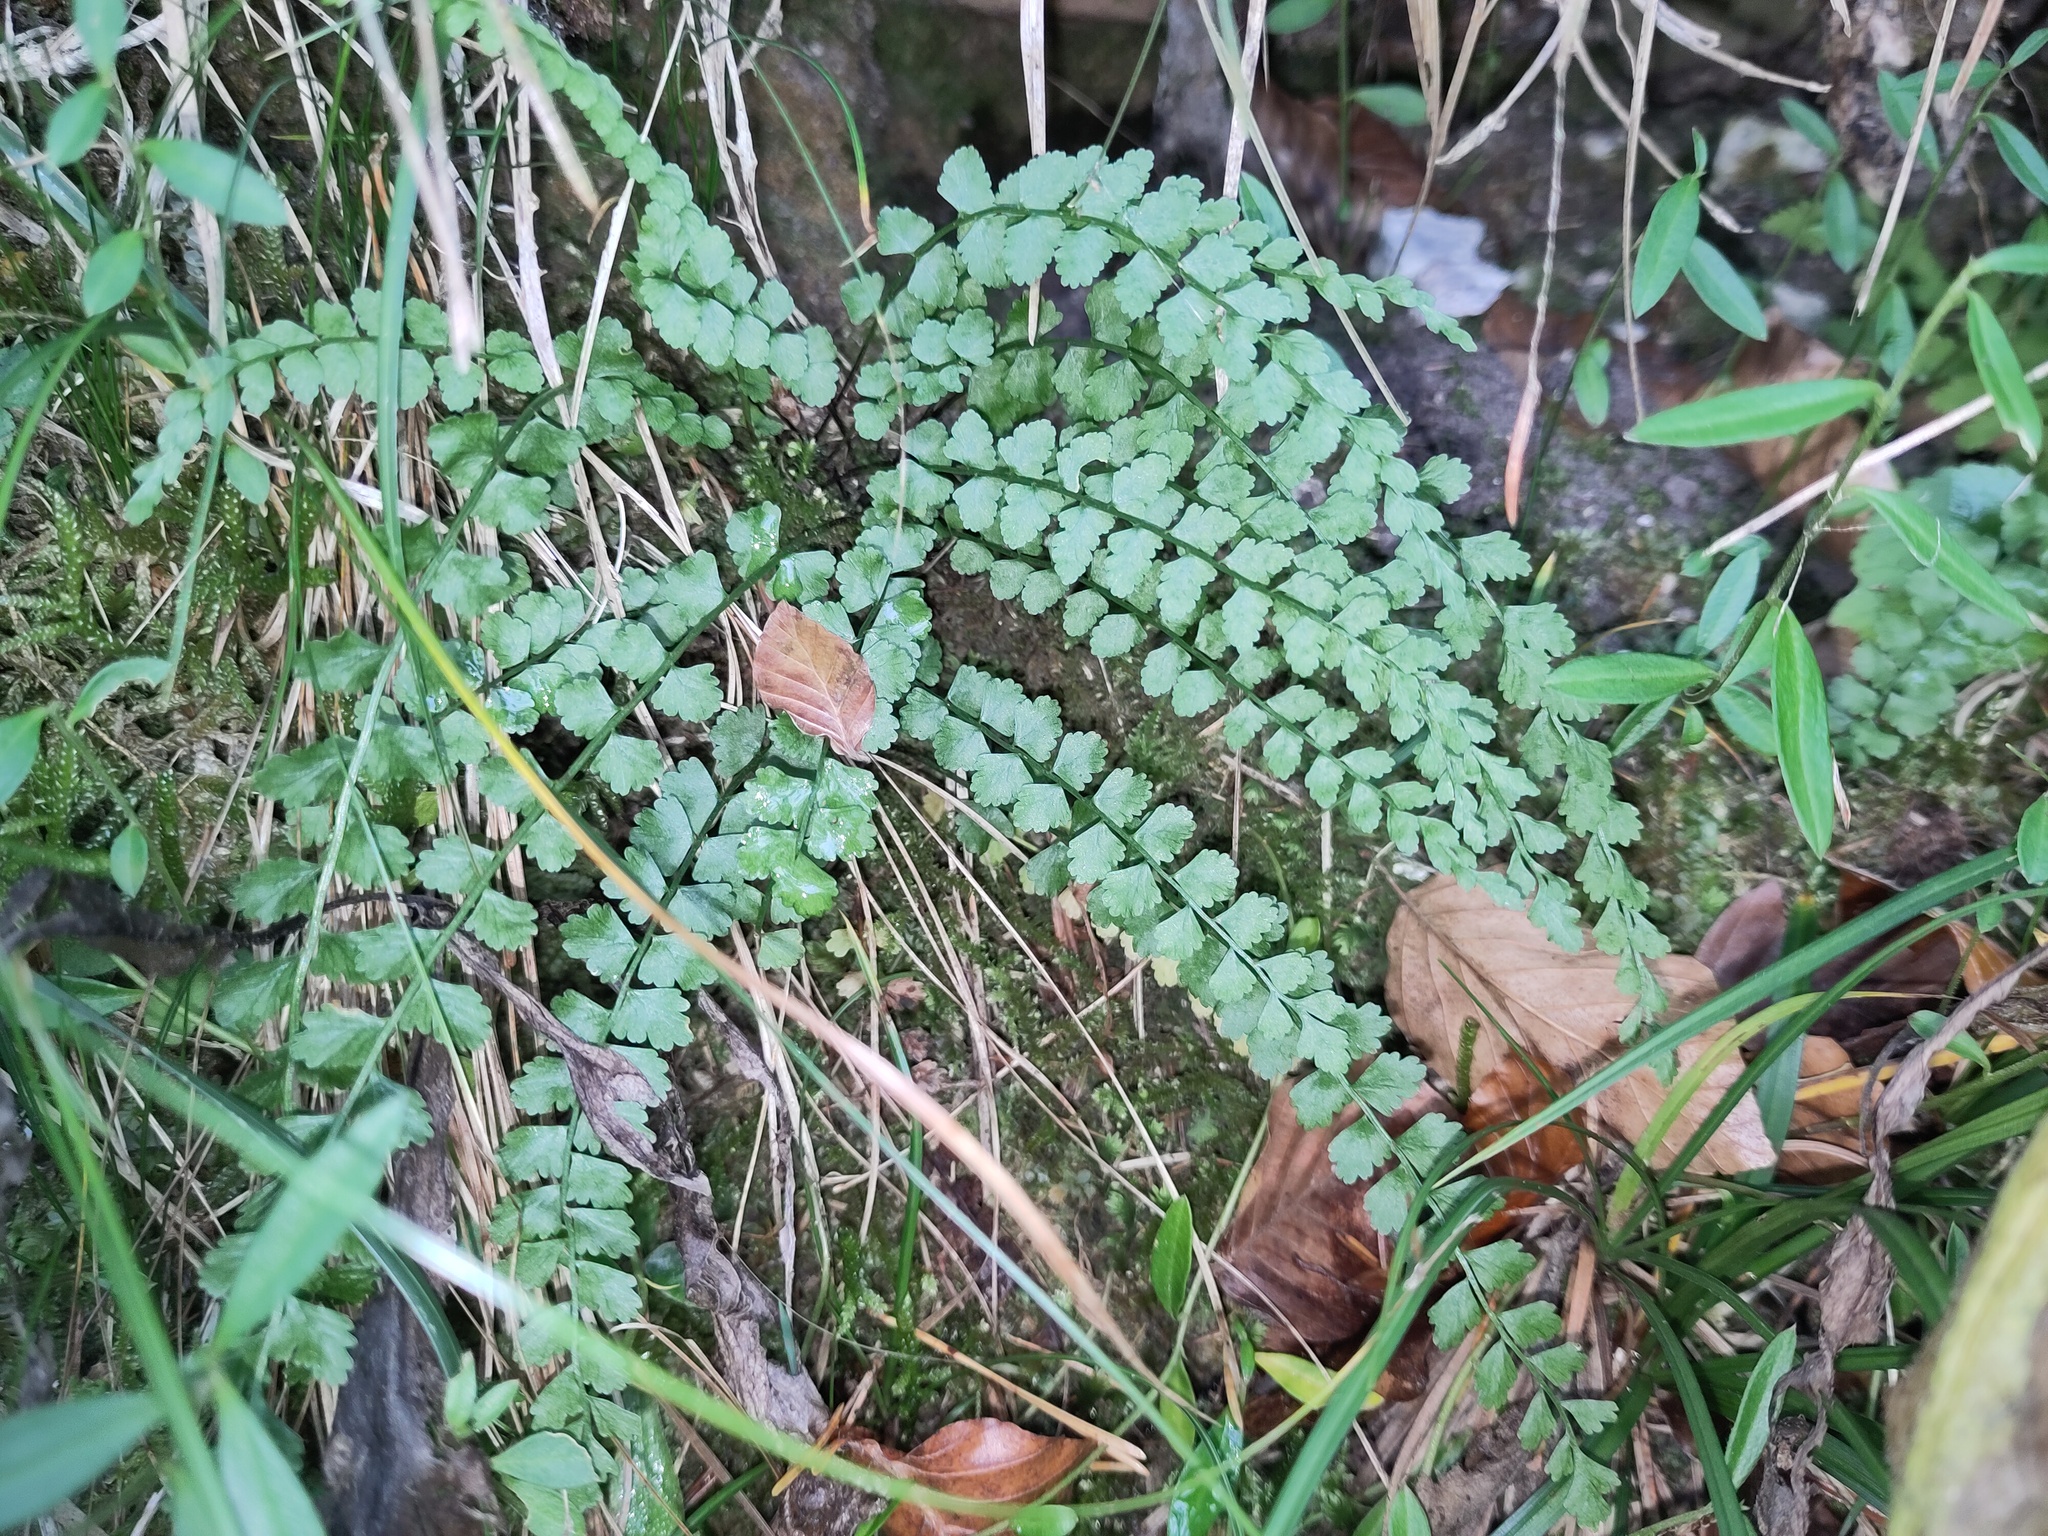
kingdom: Plantae
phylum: Tracheophyta
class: Polypodiopsida
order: Polypodiales
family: Aspleniaceae
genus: Asplenium
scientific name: Asplenium viride
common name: Green spleenwort
